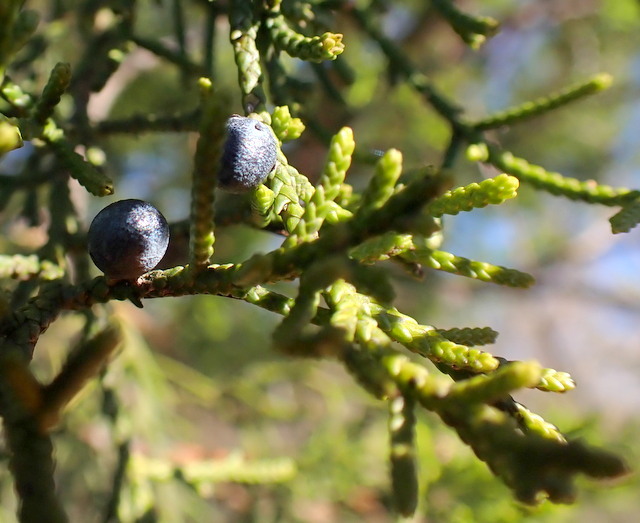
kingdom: Plantae
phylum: Tracheophyta
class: Pinopsida
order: Pinales
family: Cupressaceae
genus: Juniperus
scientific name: Juniperus virginiana
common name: Red juniper
